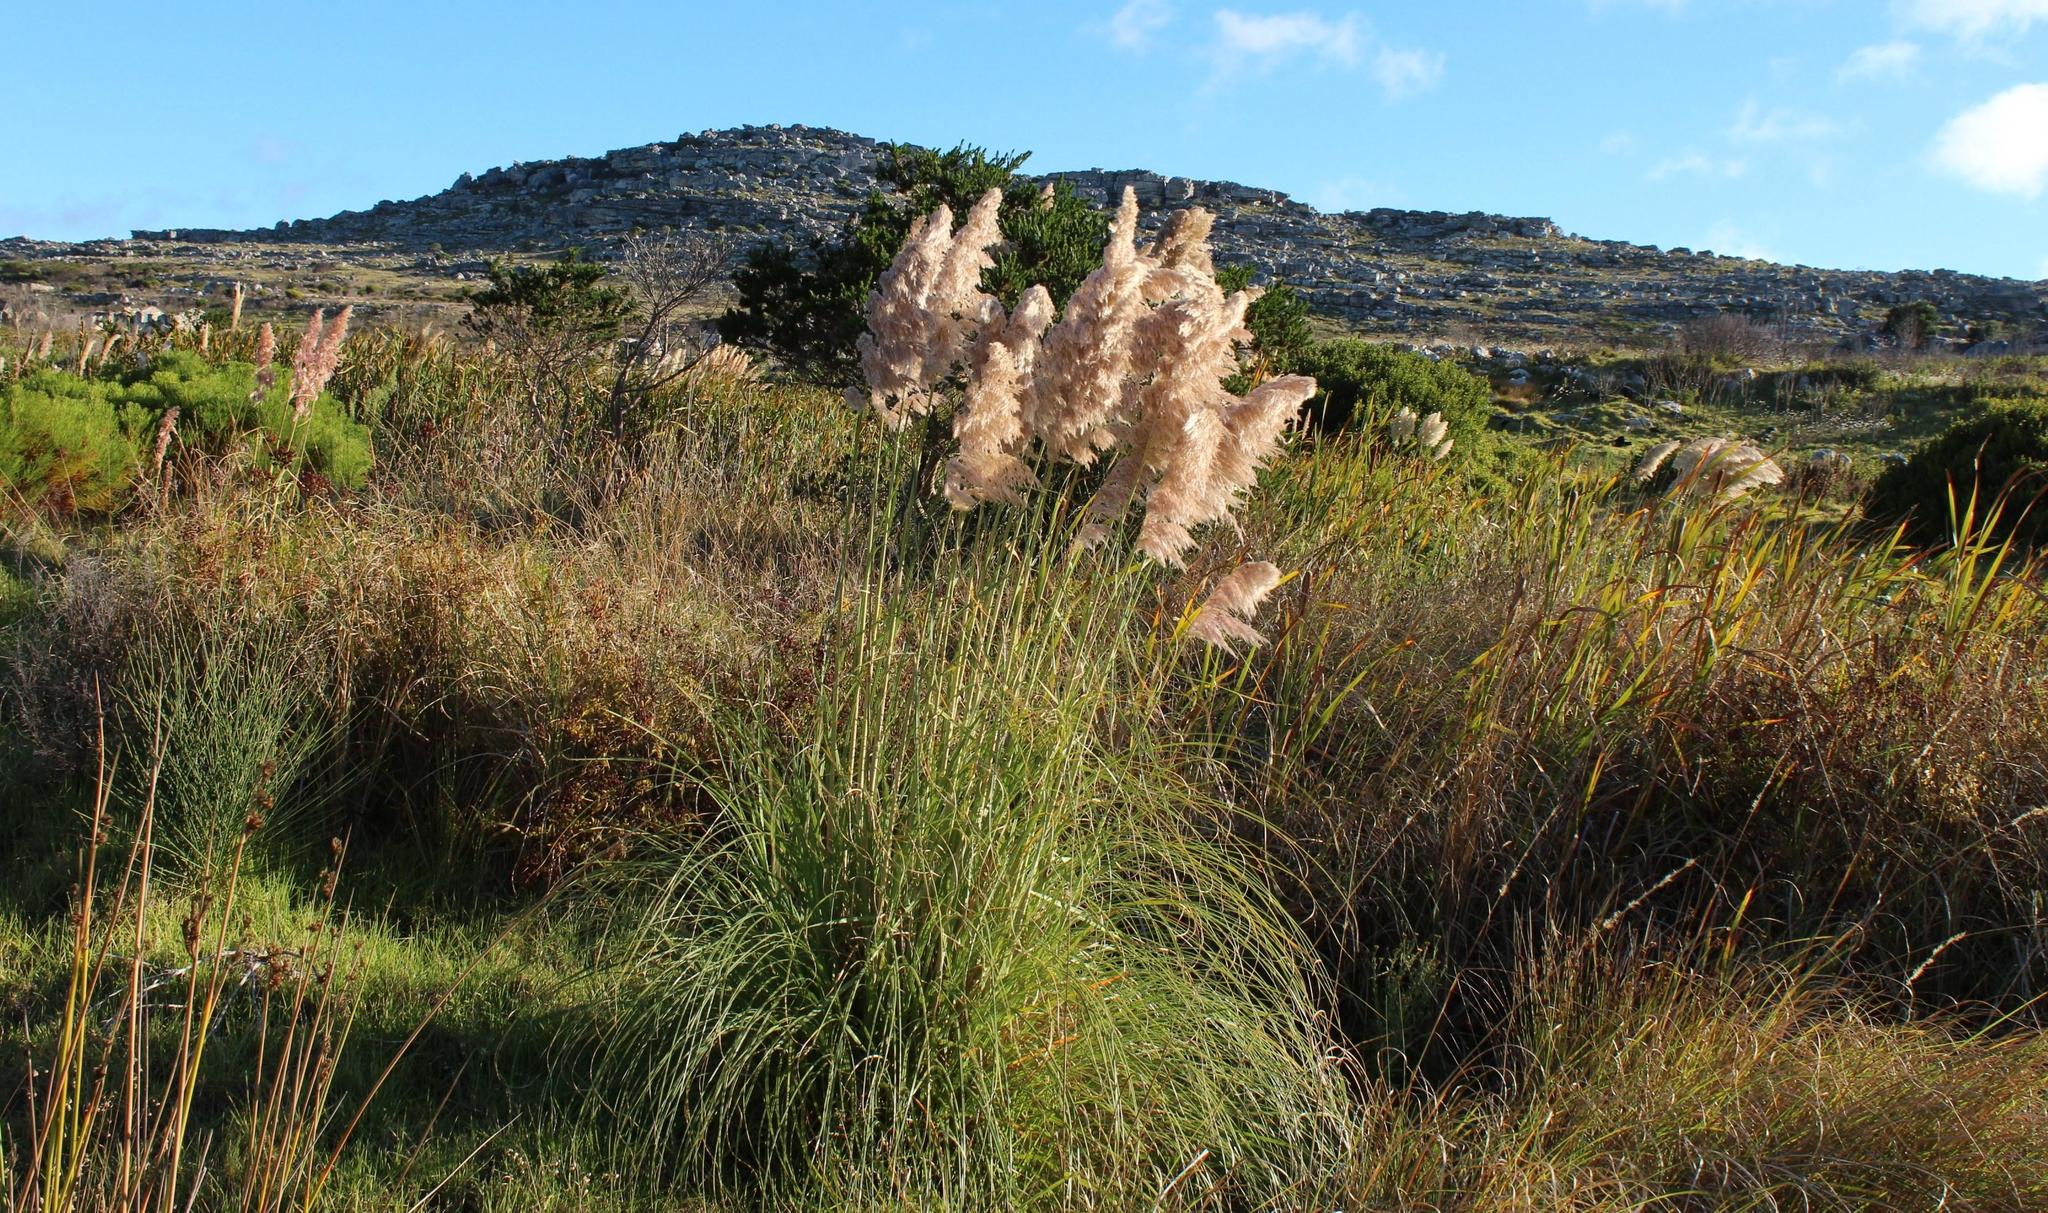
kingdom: Plantae
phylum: Tracheophyta
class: Liliopsida
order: Poales
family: Poaceae
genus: Cortaderia
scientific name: Cortaderia selloana
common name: Uruguayan pampas grass
